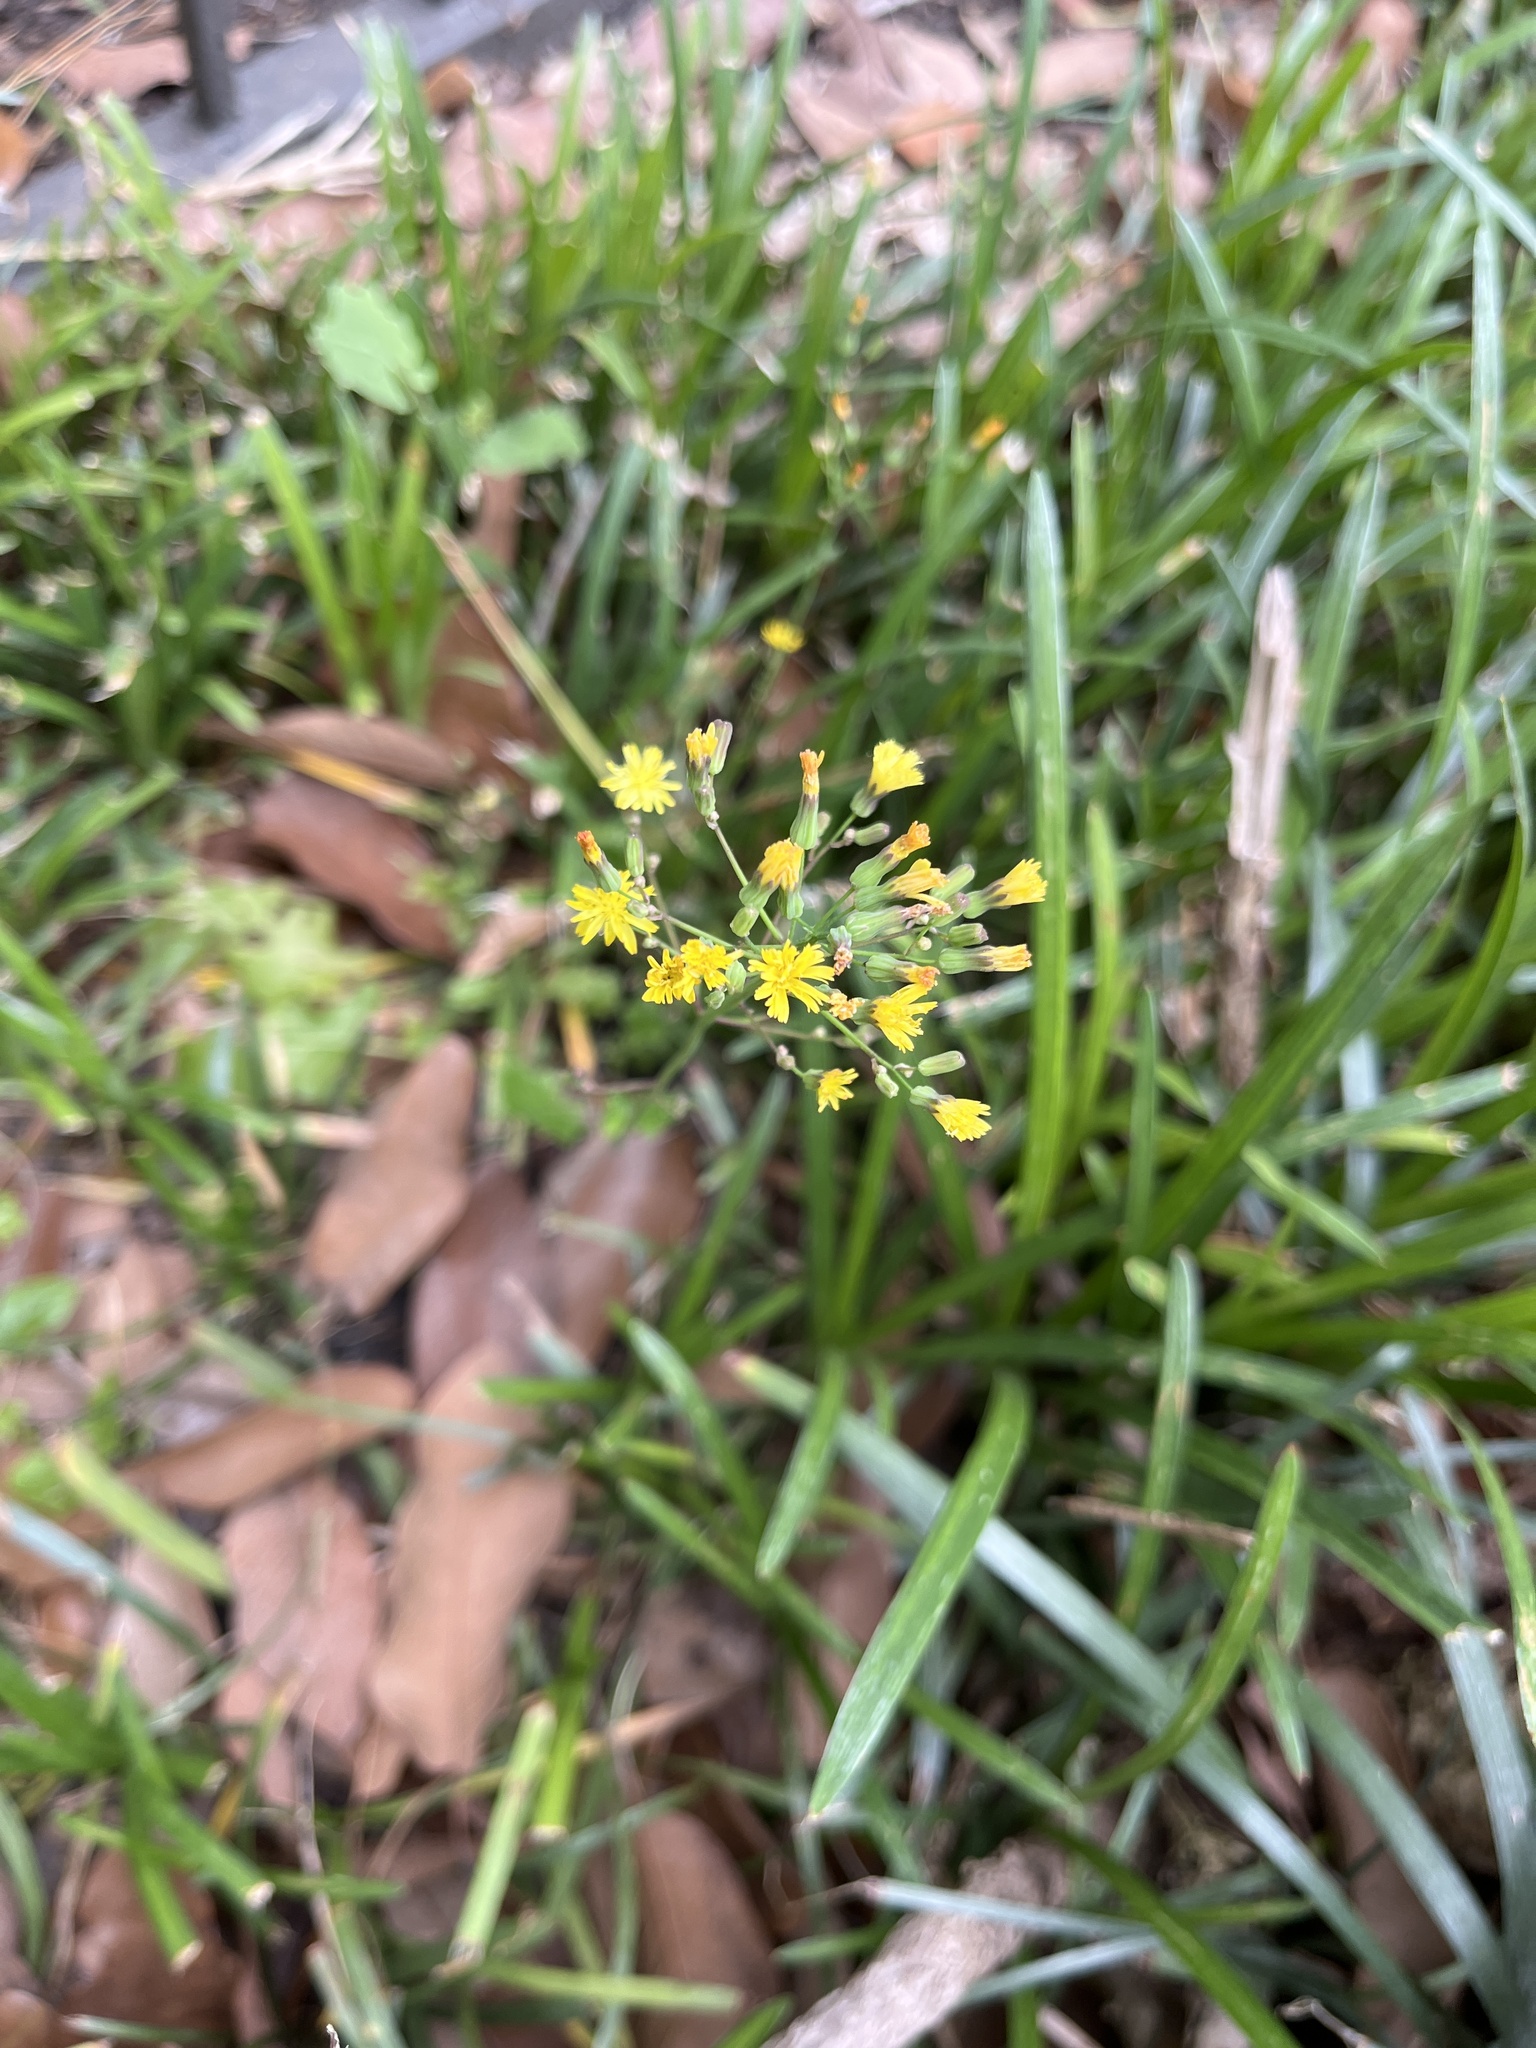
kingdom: Plantae
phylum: Tracheophyta
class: Magnoliopsida
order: Asterales
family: Asteraceae
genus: Youngia
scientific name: Youngia japonica
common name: Oriental false hawksbeard
